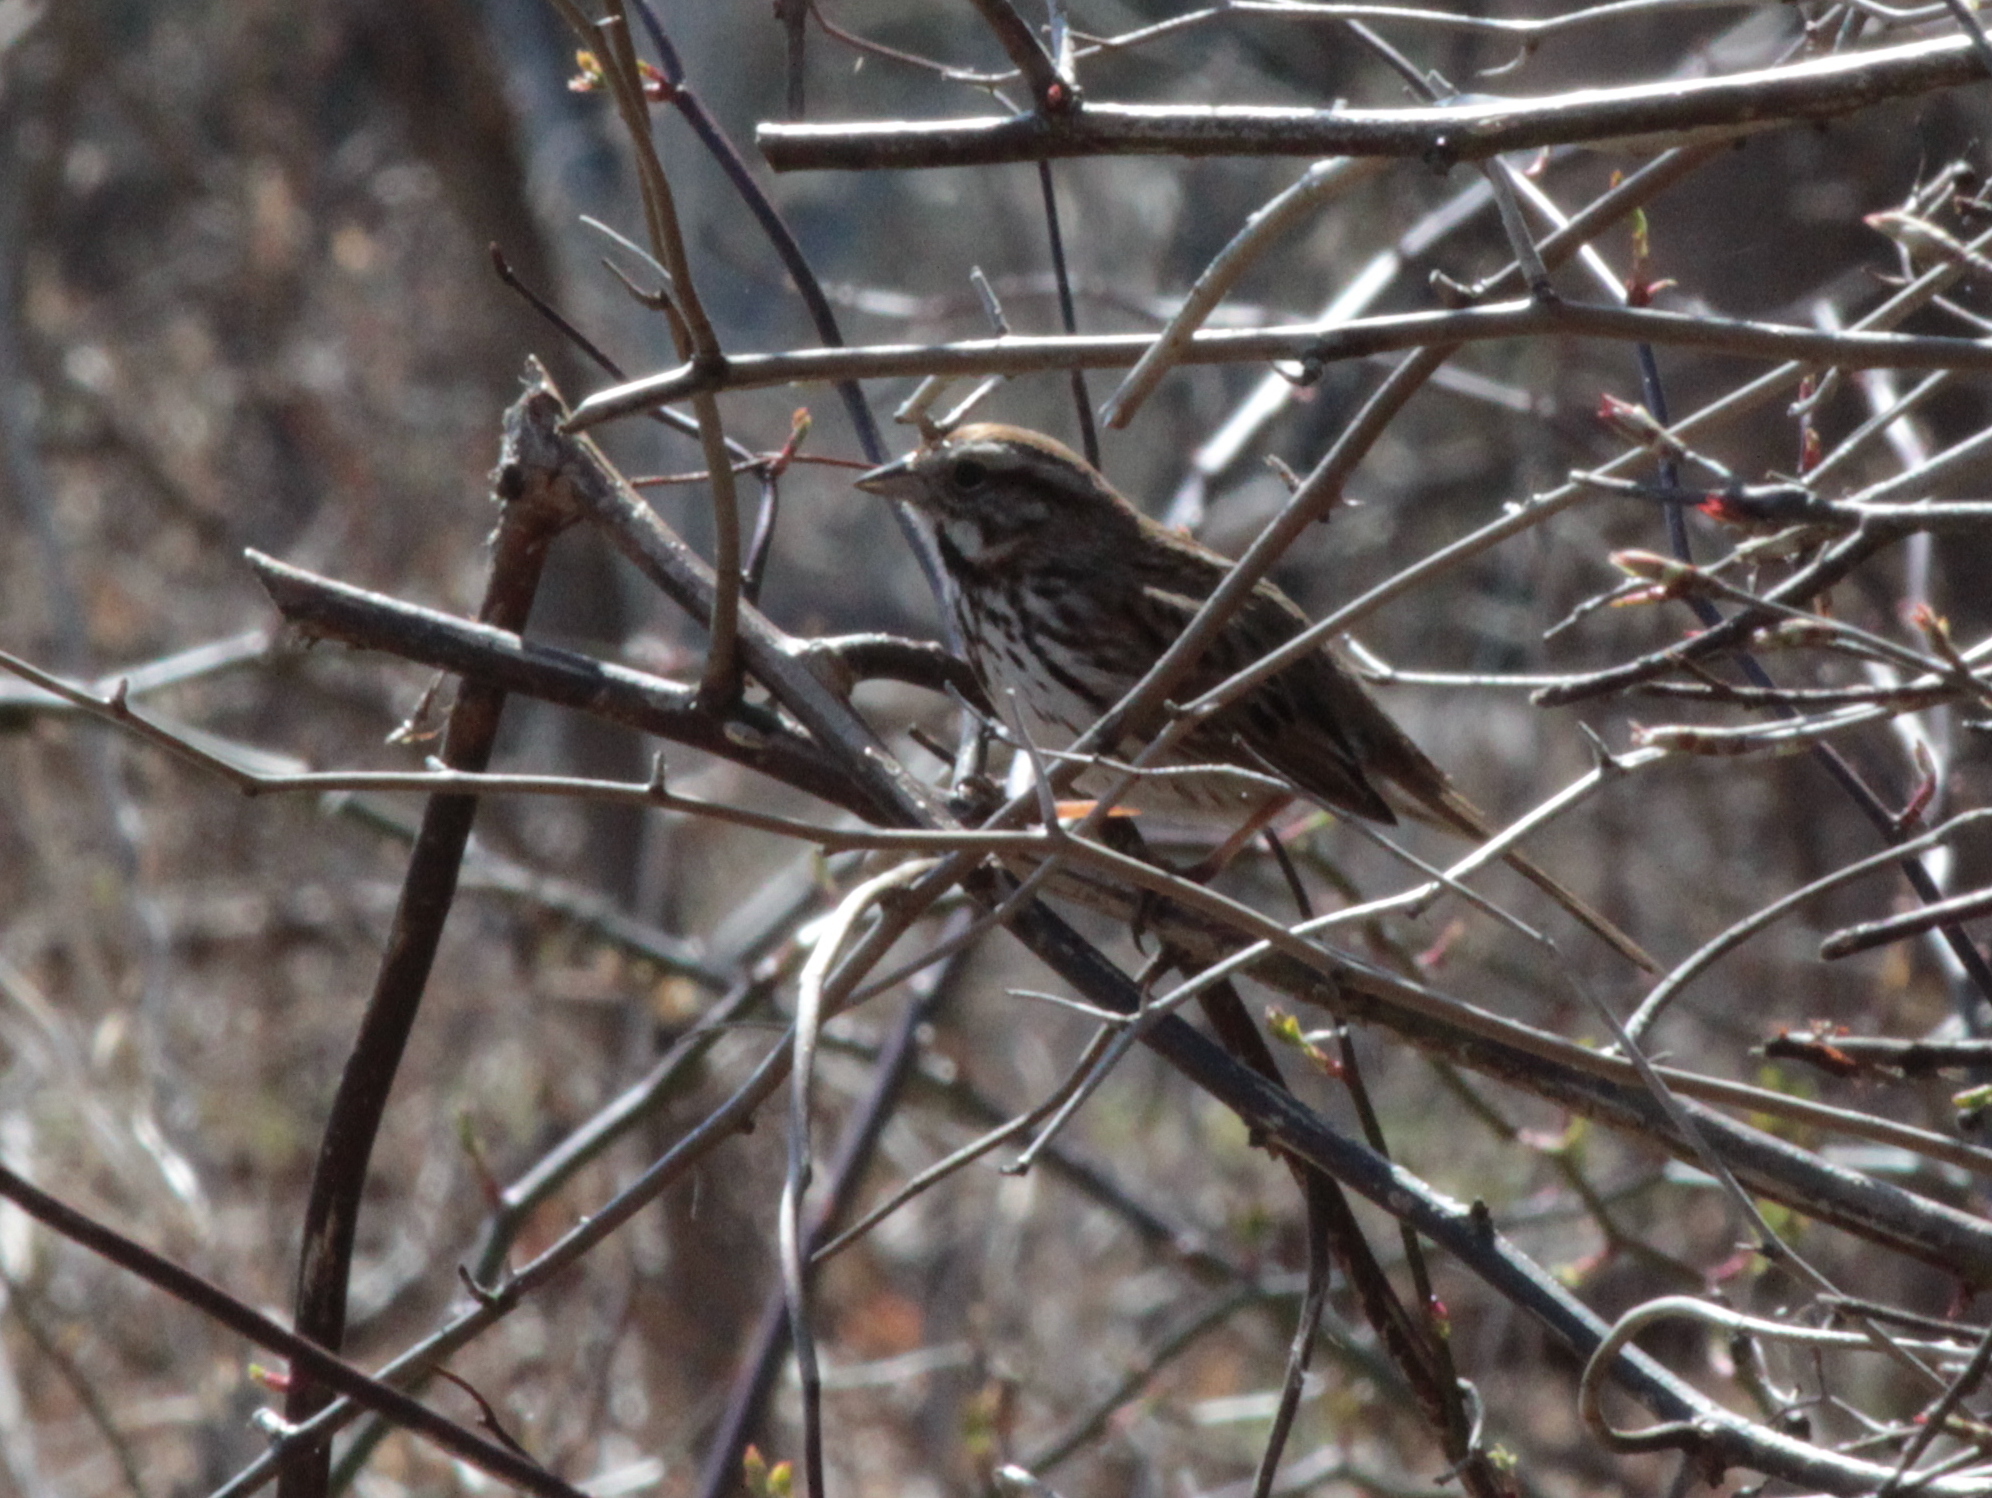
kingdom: Animalia
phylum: Chordata
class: Aves
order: Passeriformes
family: Passerellidae
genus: Melospiza
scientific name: Melospiza melodia
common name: Song sparrow
